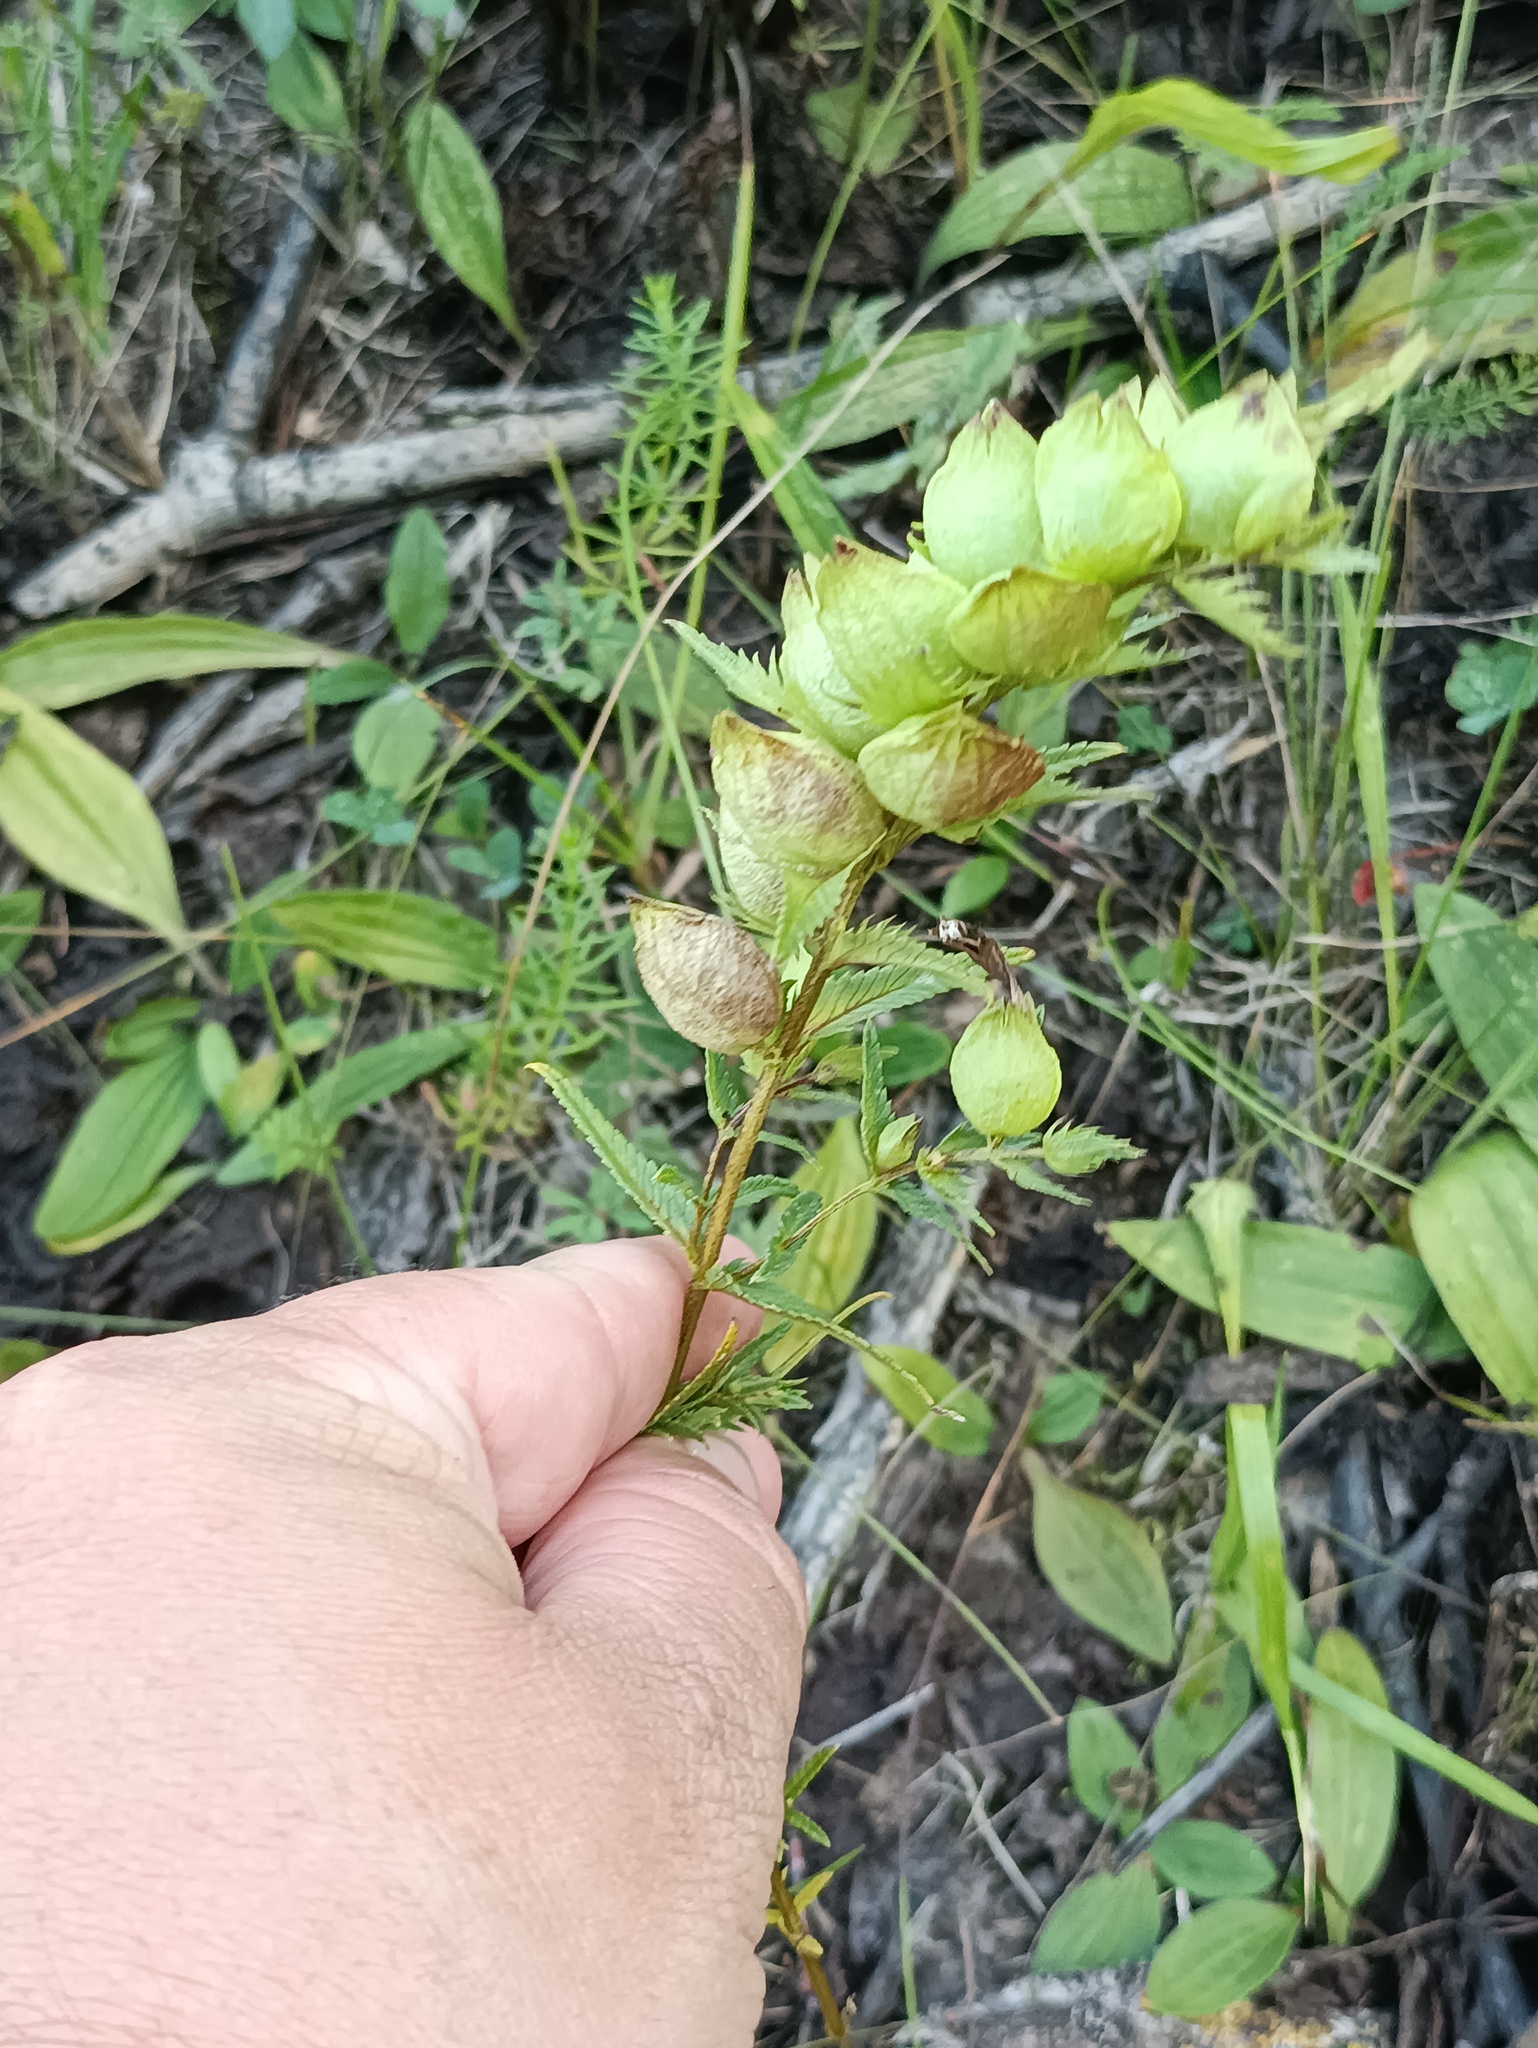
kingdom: Plantae
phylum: Tracheophyta
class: Magnoliopsida
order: Lamiales
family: Orobanchaceae
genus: Rhinanthus
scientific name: Rhinanthus serotinus
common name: Late-flowering yellow rattle
